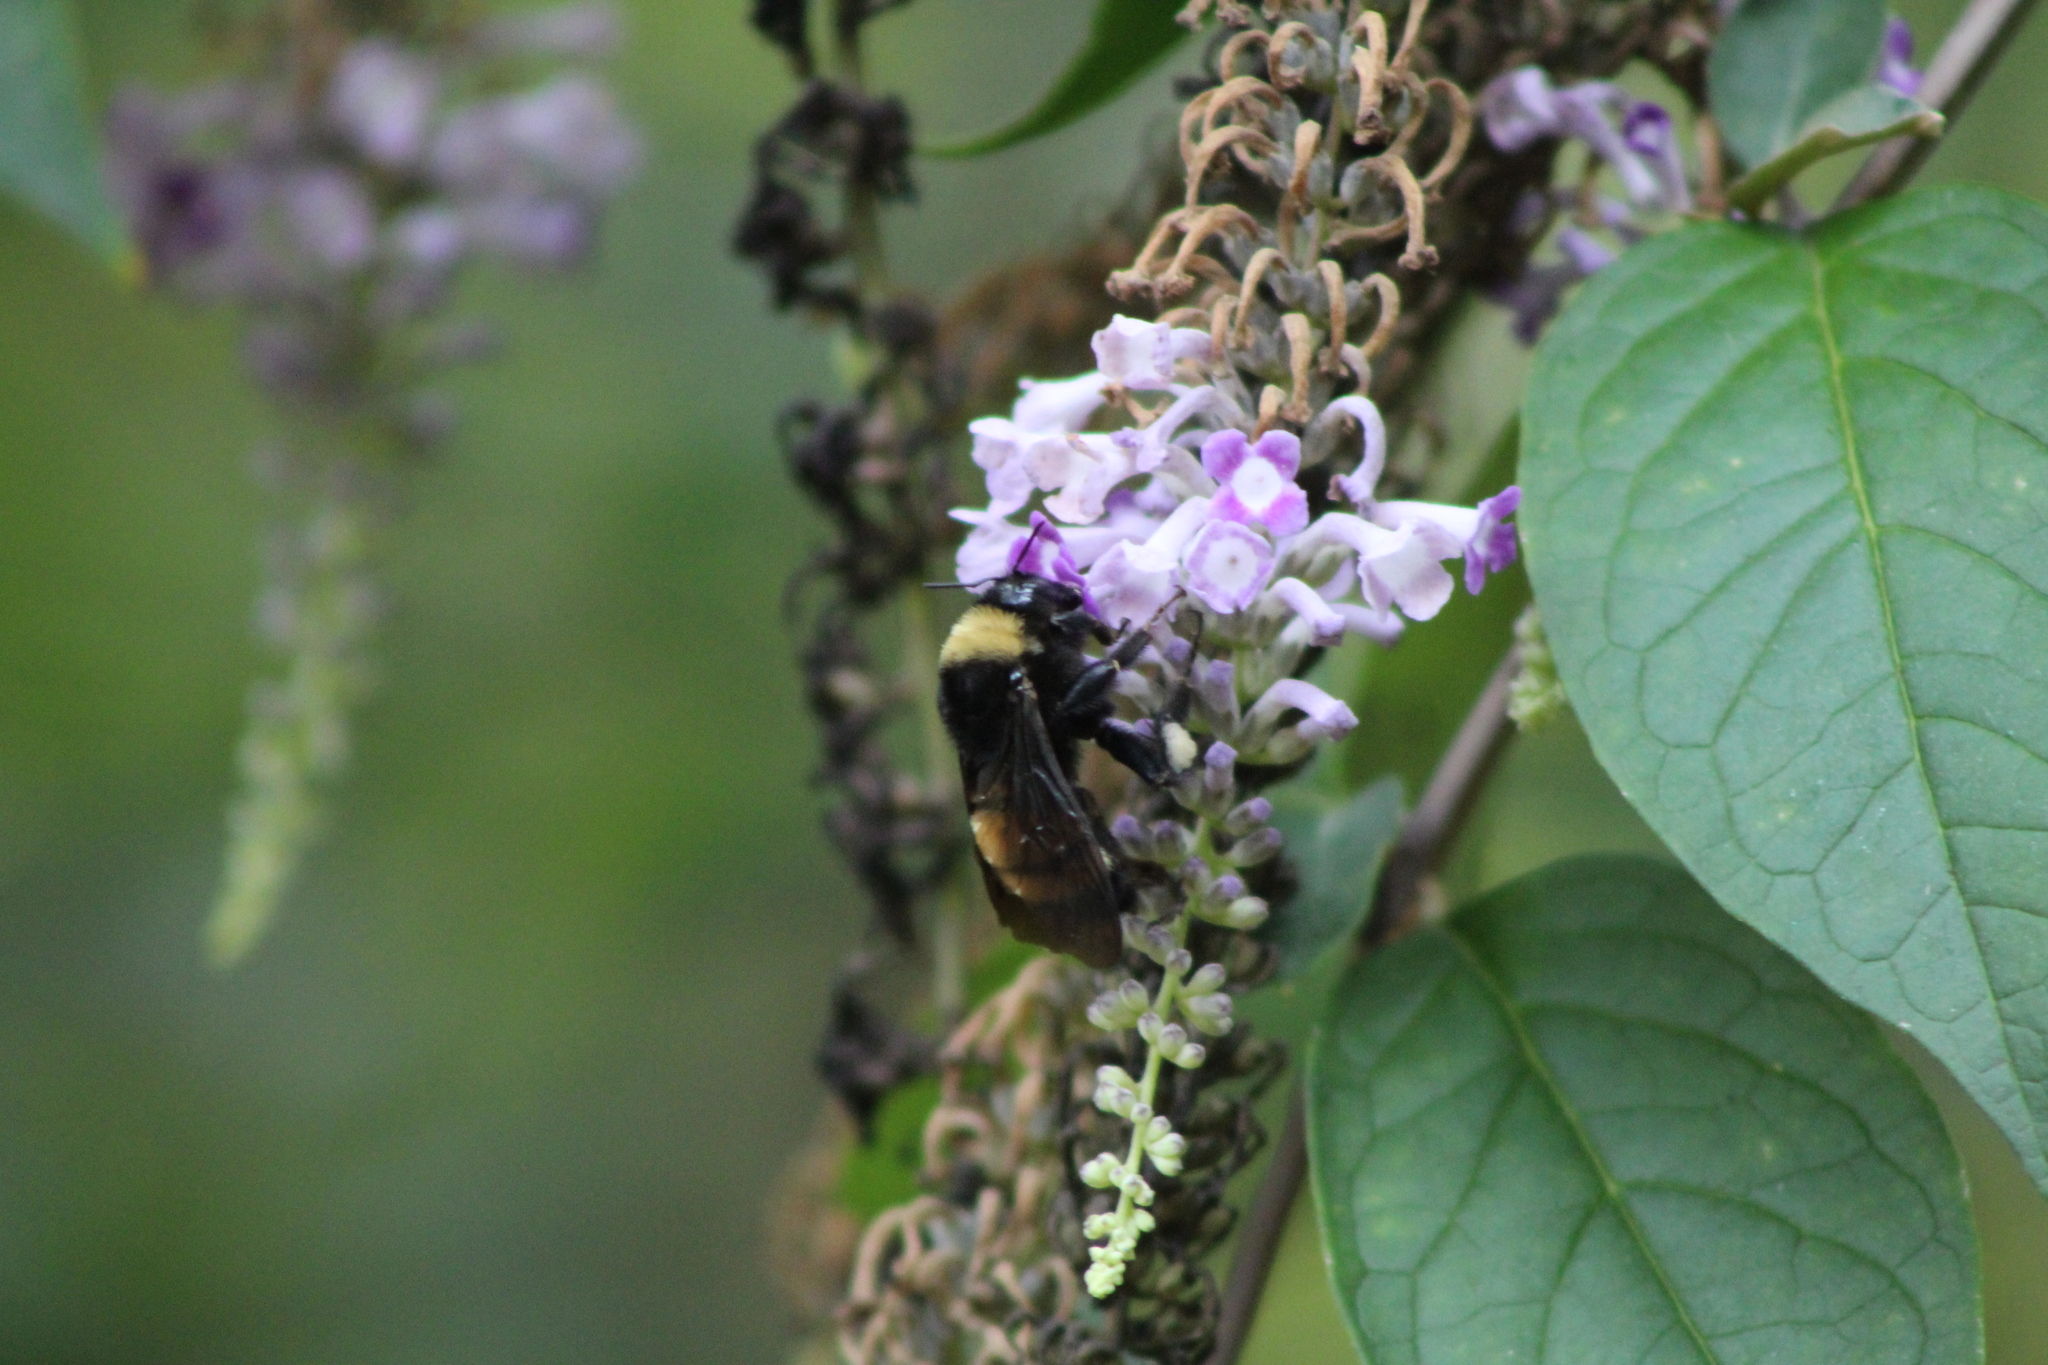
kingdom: Animalia
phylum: Arthropoda
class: Insecta
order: Hymenoptera
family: Apidae
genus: Bombus
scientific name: Bombus pensylvanicus
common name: Bumble bee
